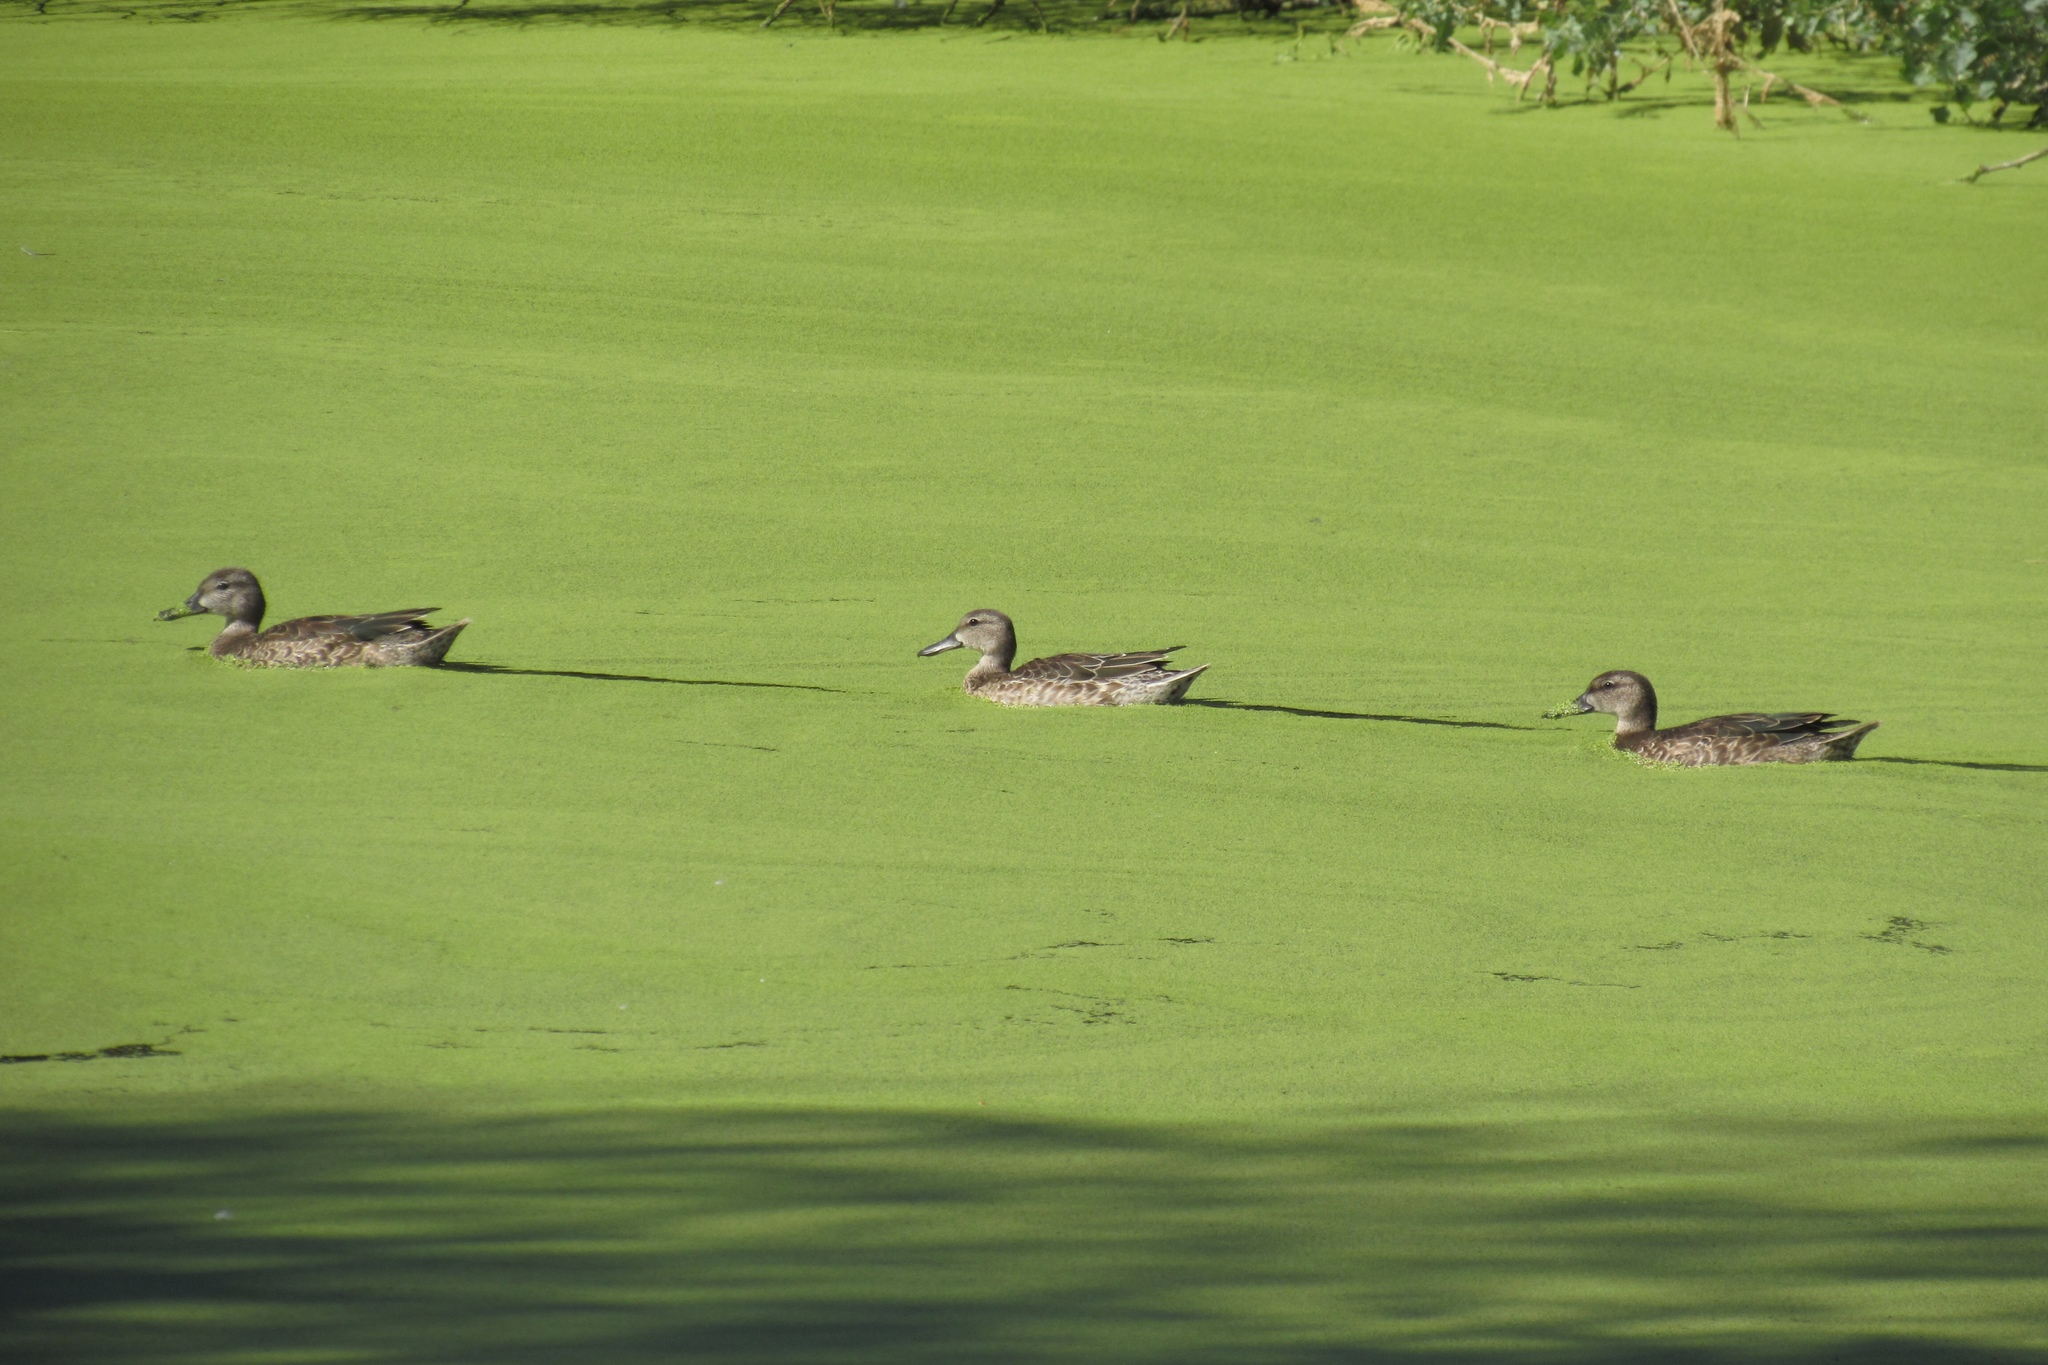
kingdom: Animalia
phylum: Chordata
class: Aves
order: Anseriformes
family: Anatidae
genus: Spatula
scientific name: Spatula discors
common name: Blue-winged teal
